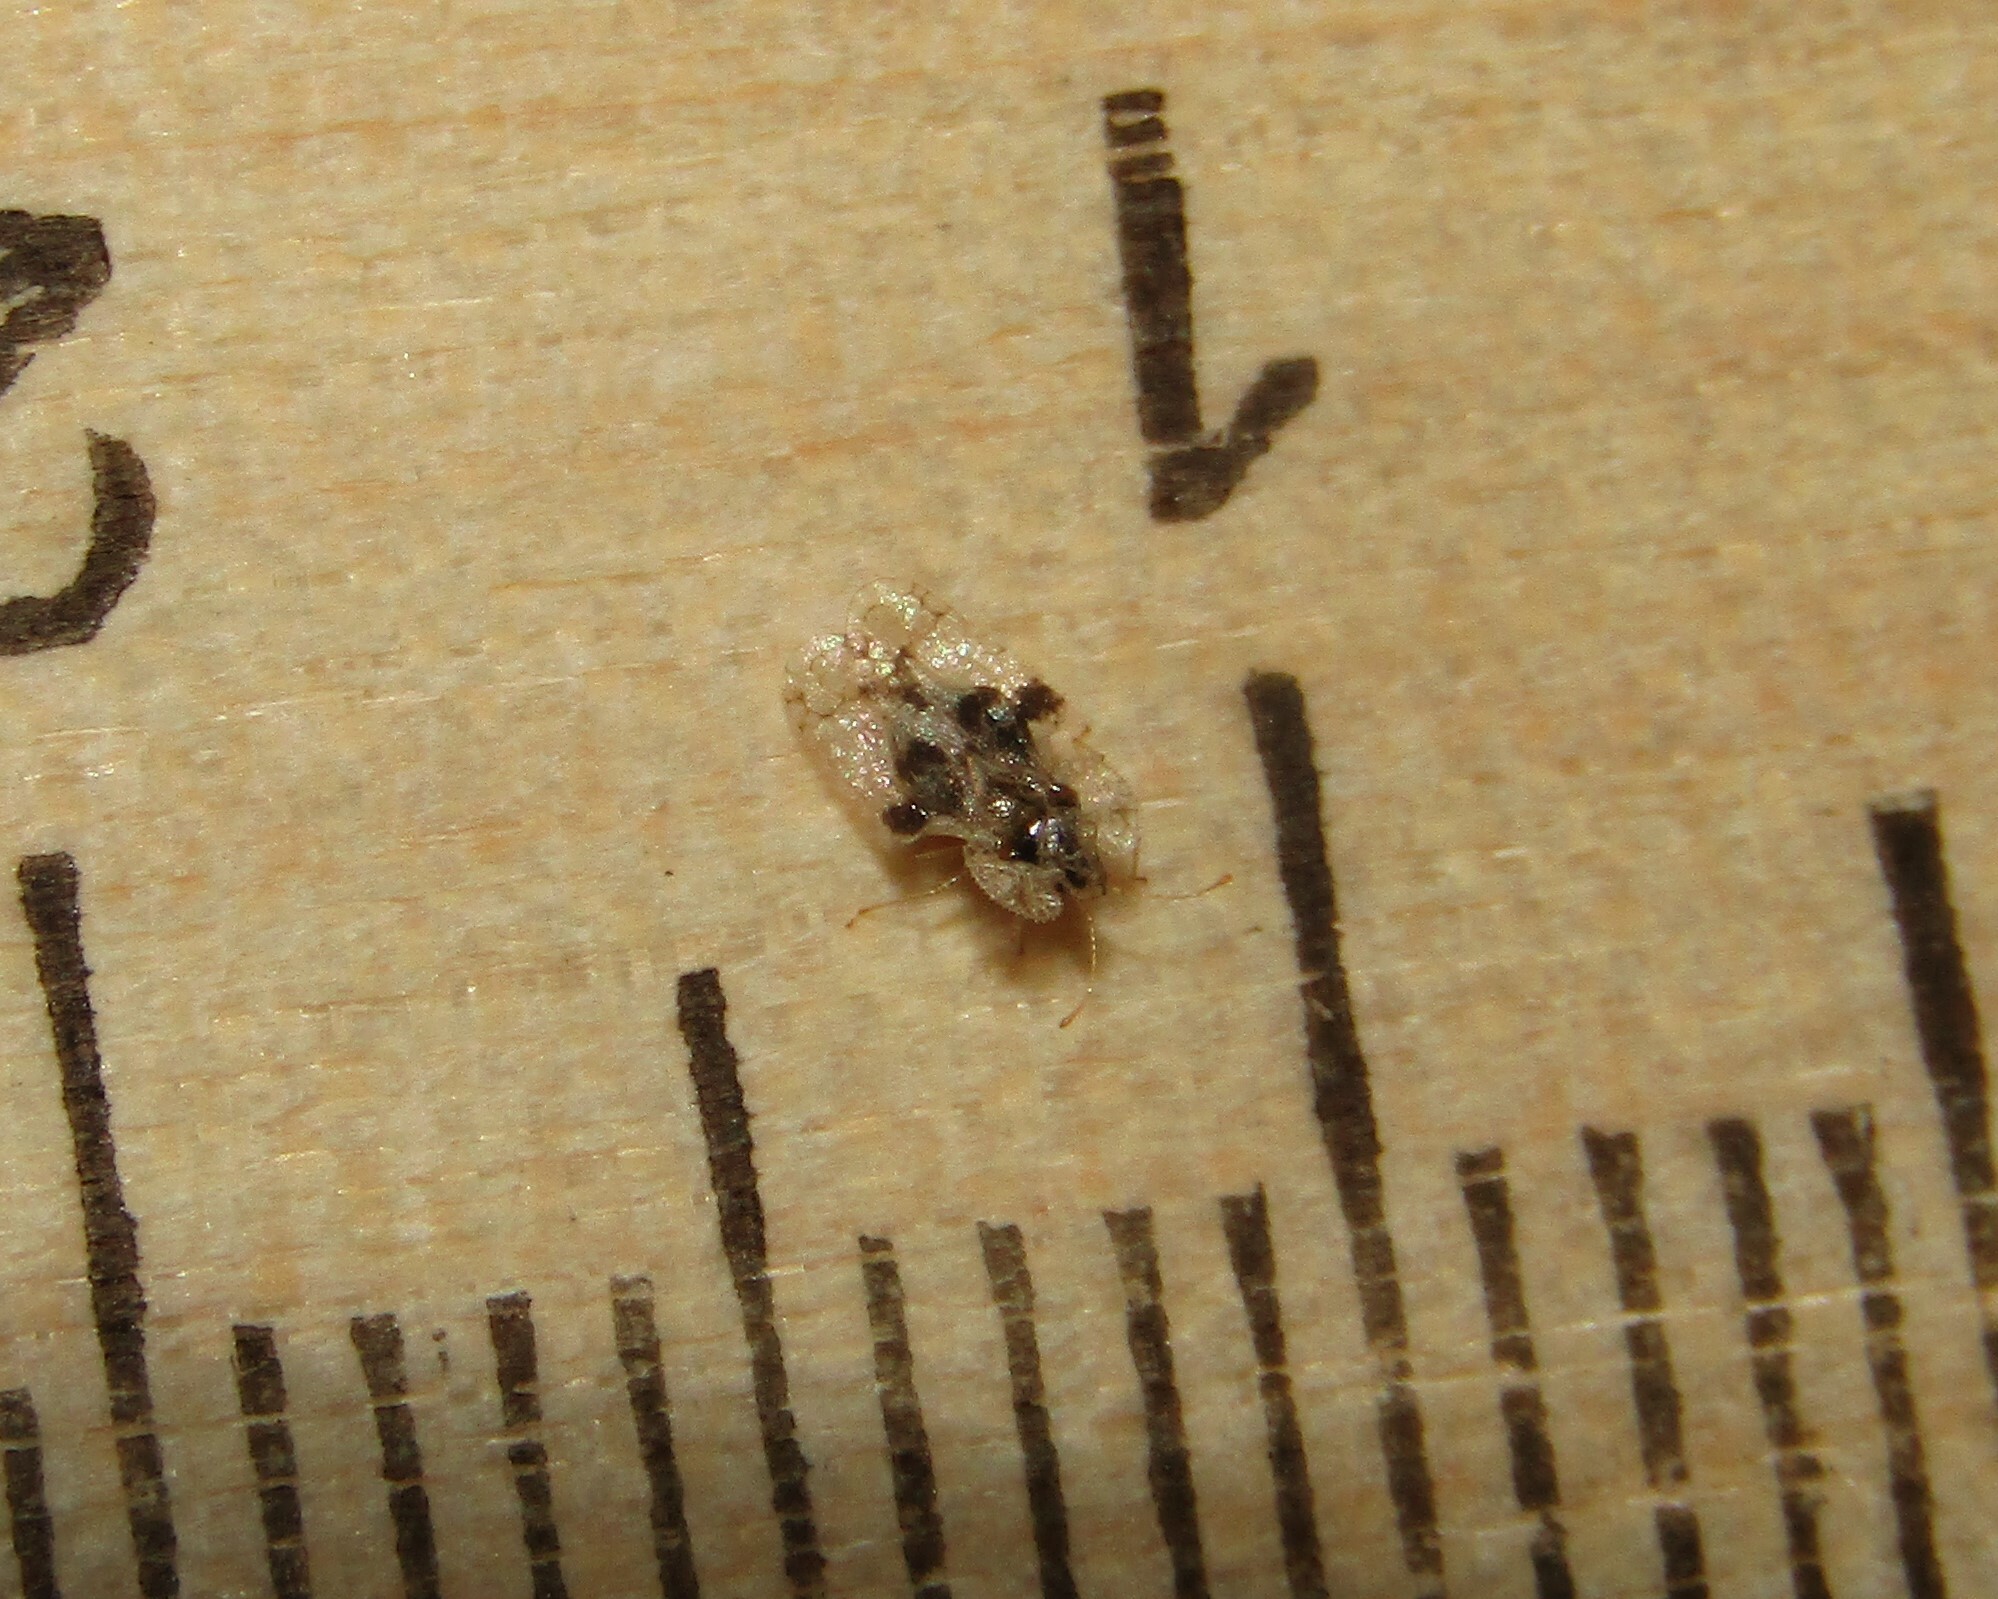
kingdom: Animalia
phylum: Arthropoda
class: Insecta
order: Hemiptera
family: Tingidae
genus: Corythucha
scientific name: Corythucha arcuata
